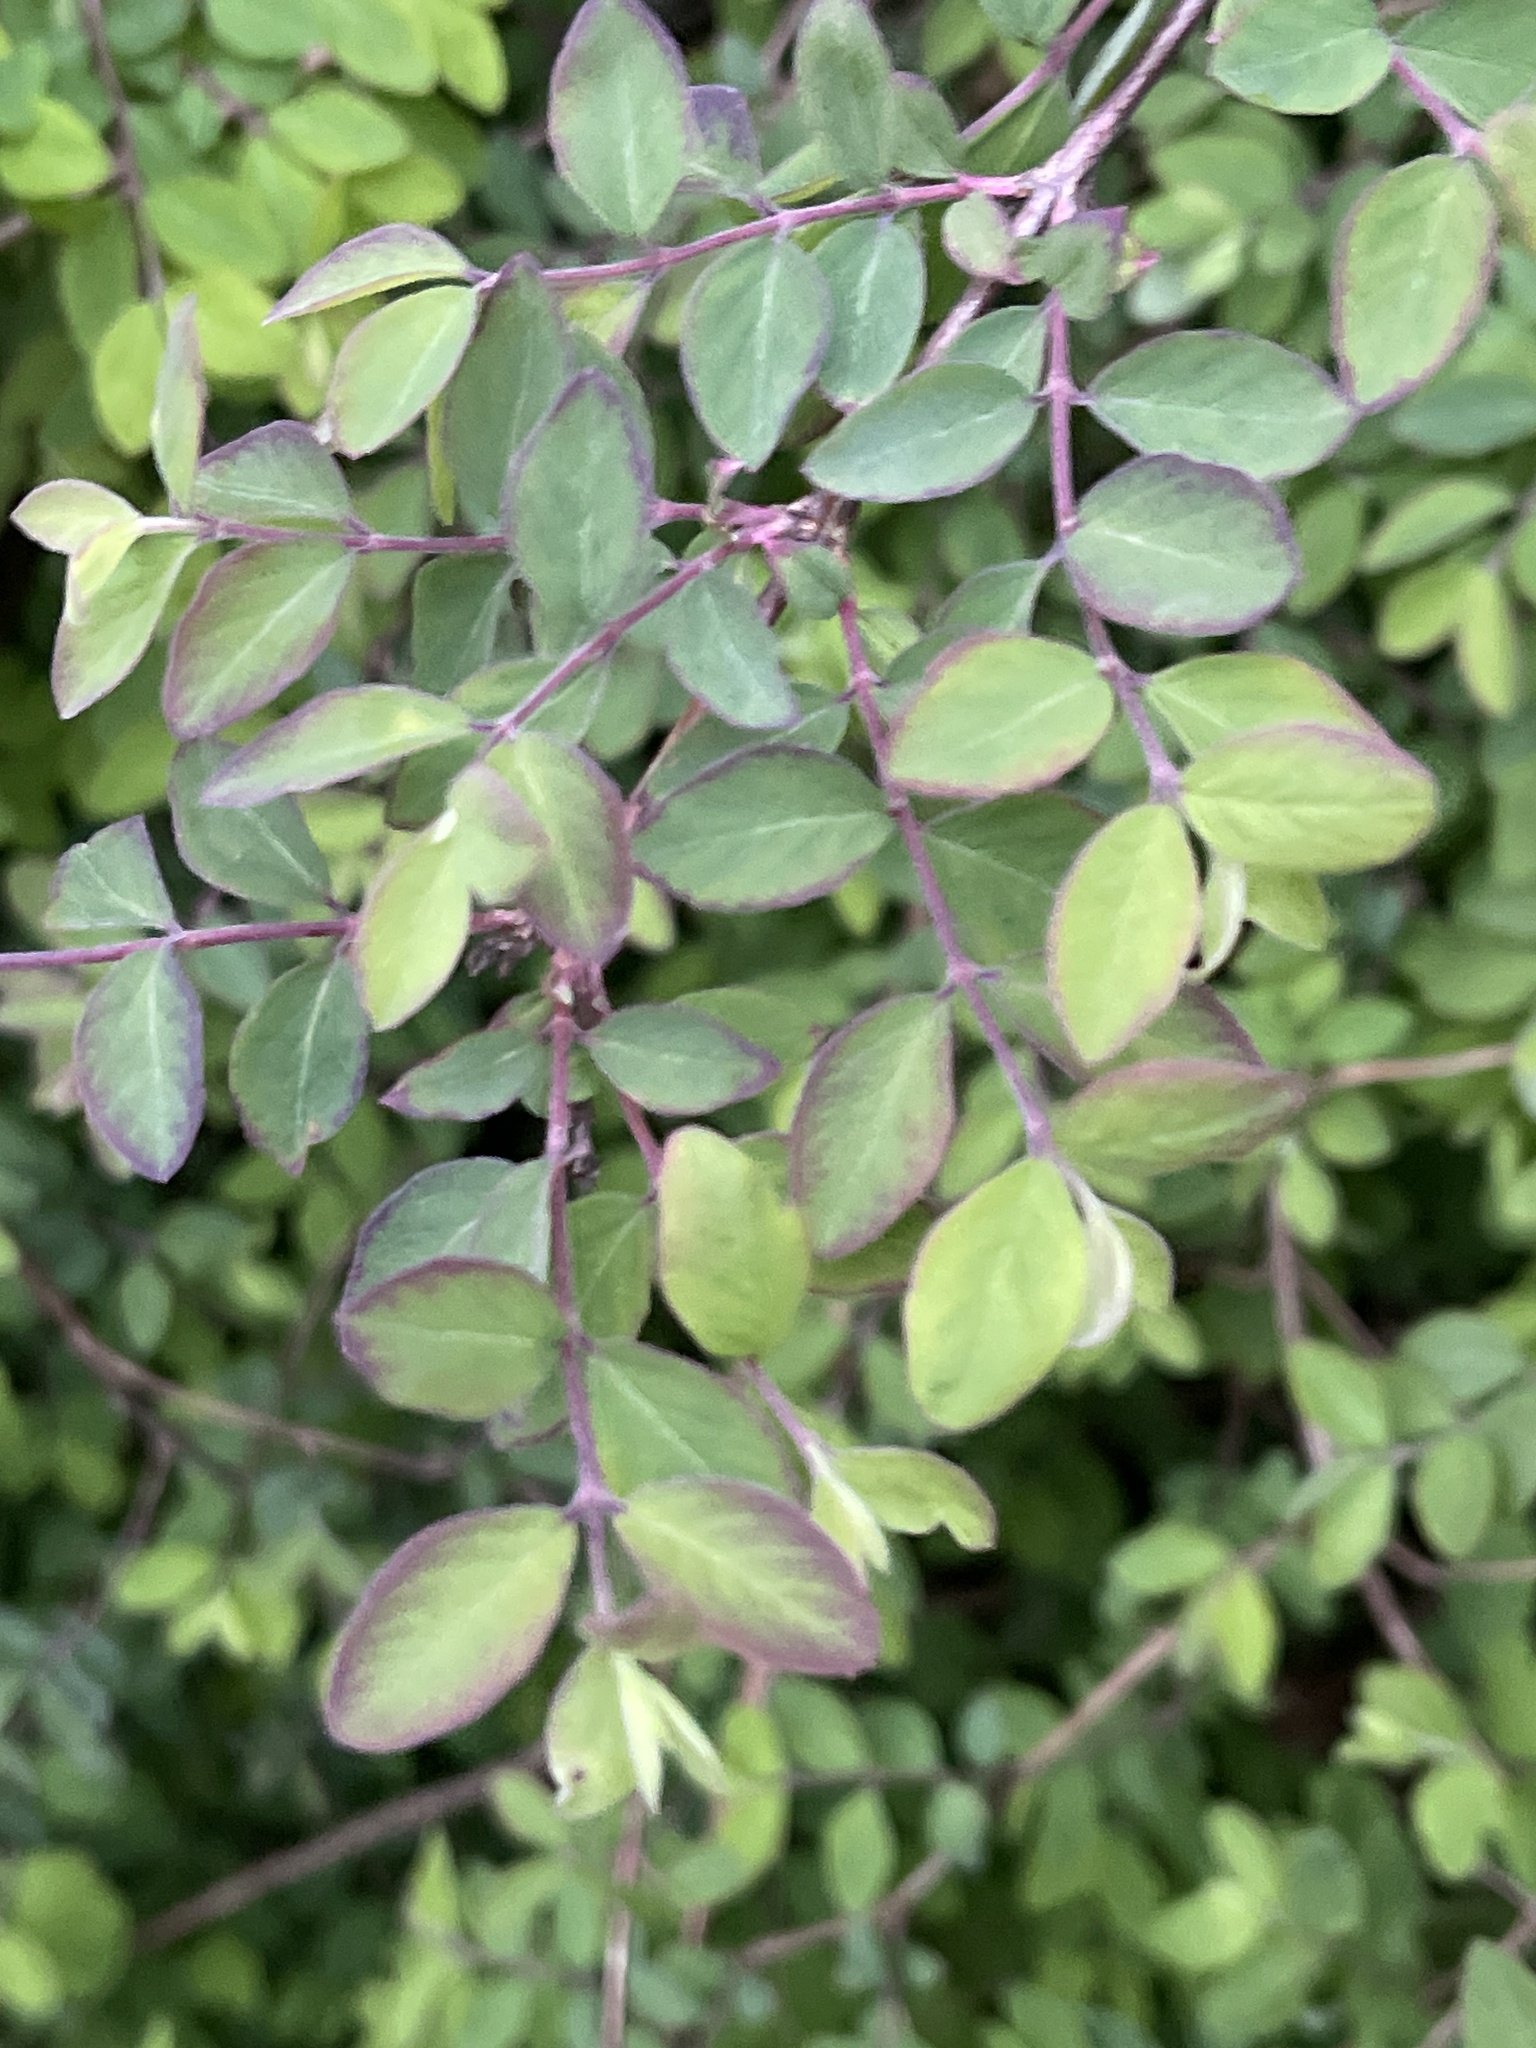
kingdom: Plantae
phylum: Tracheophyta
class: Magnoliopsida
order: Dipsacales
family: Caprifoliaceae
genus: Symphoricarpos
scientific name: Symphoricarpos chenaultii
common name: Hybrid coralberry
